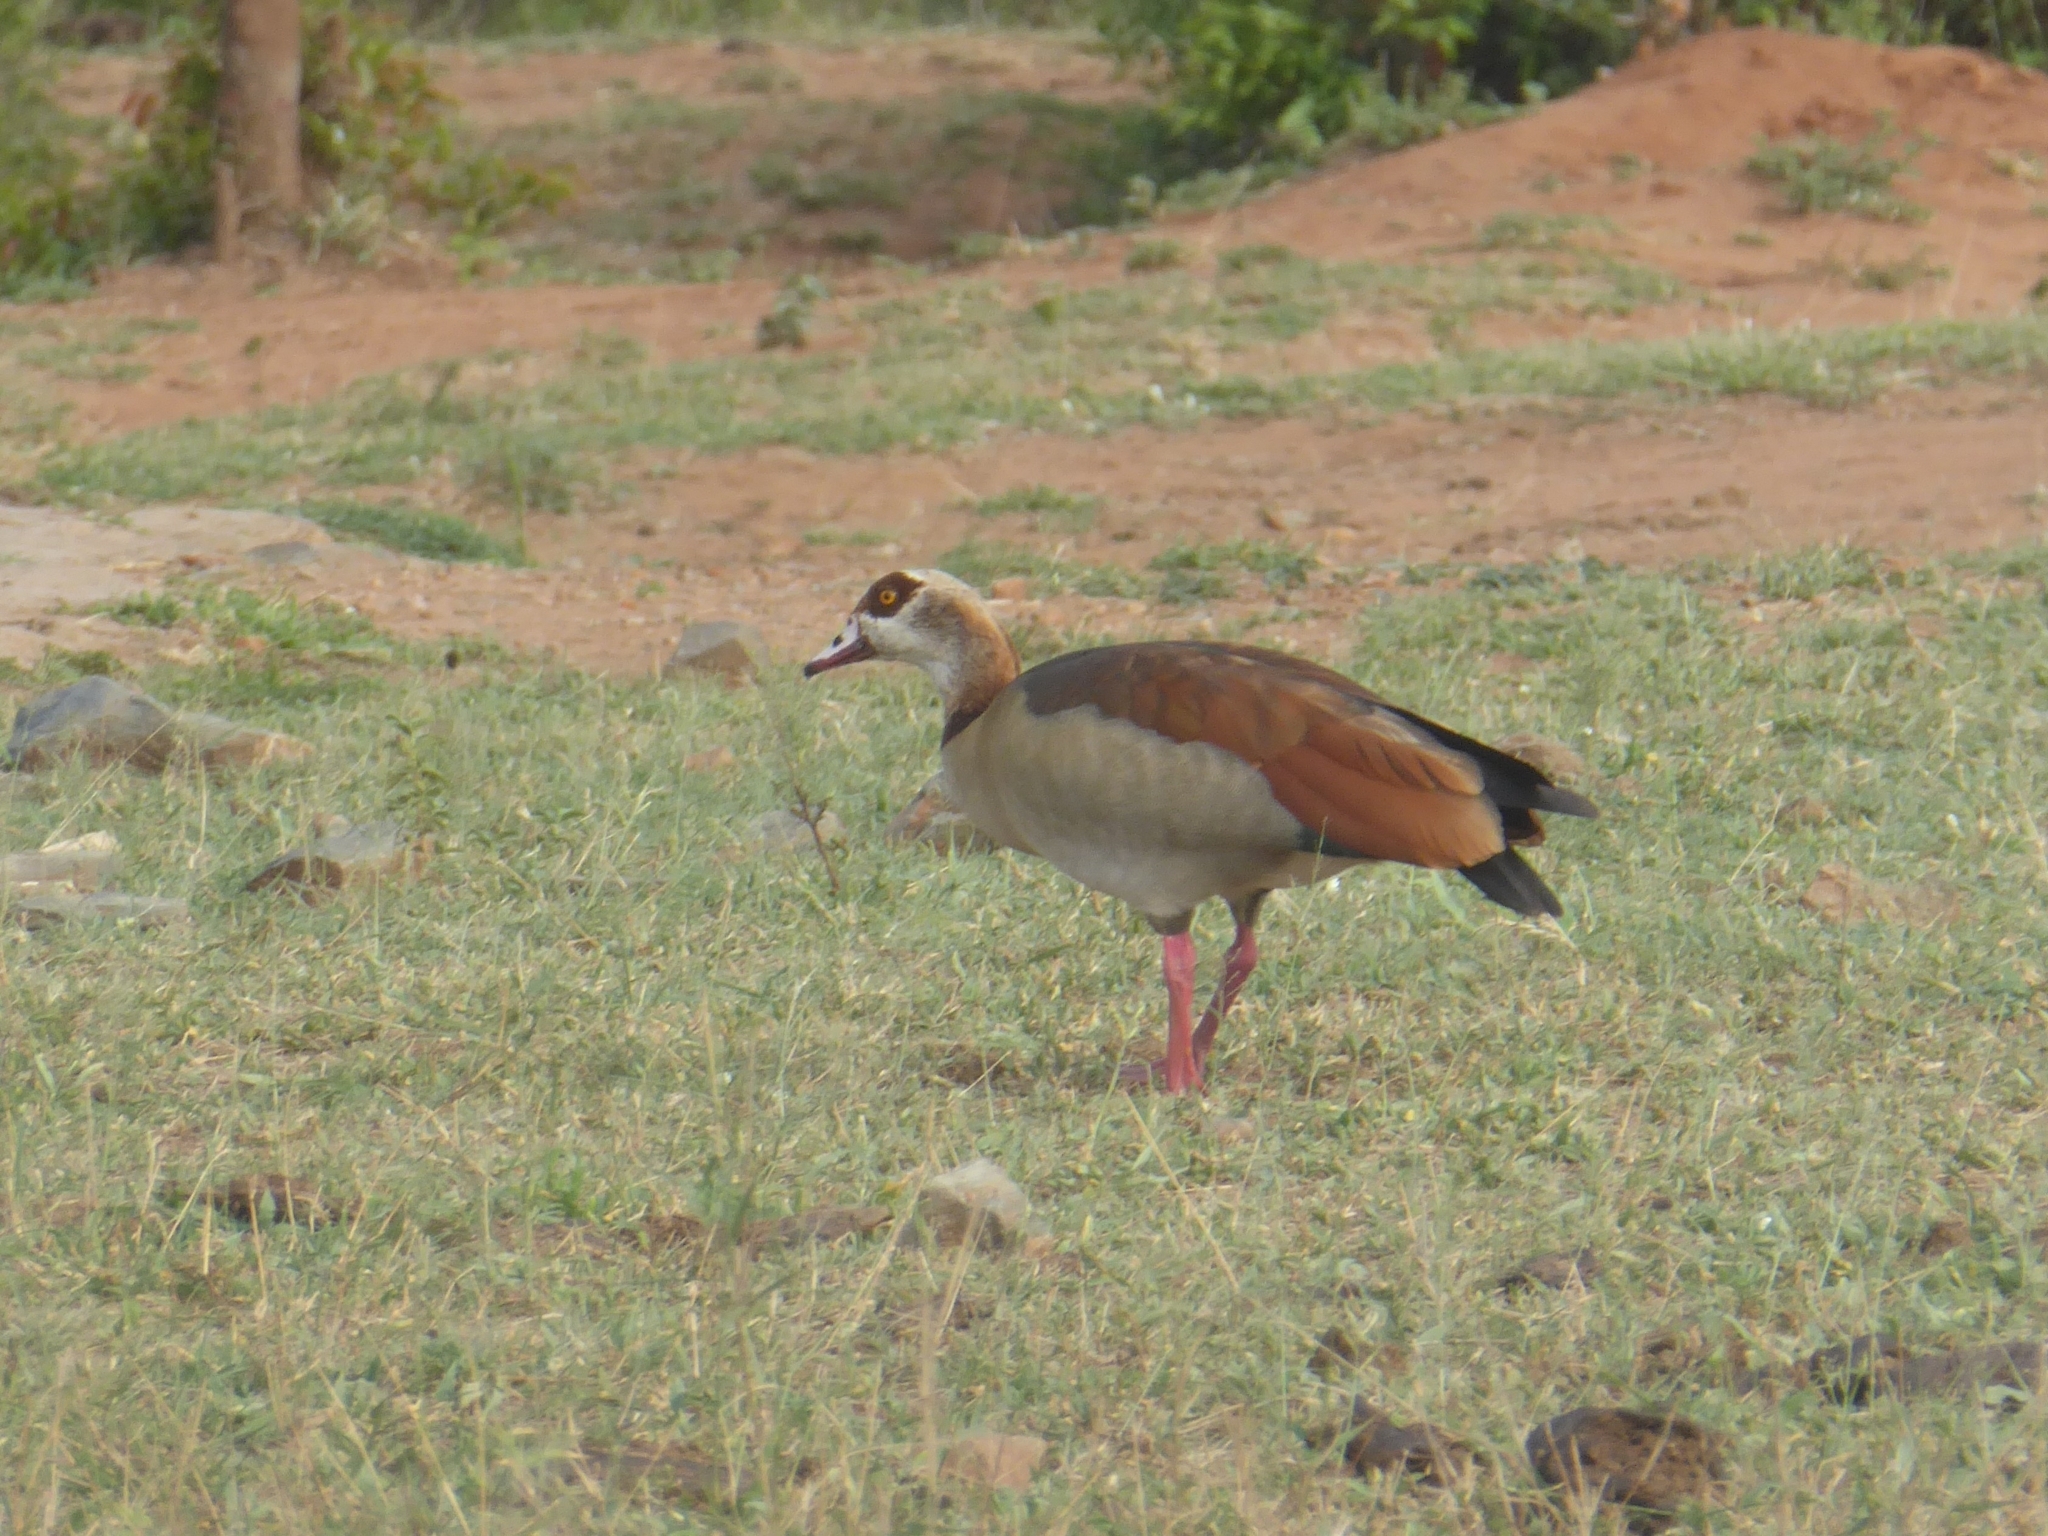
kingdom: Animalia
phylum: Chordata
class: Aves
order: Anseriformes
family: Anatidae
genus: Alopochen
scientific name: Alopochen aegyptiaca
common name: Egyptian goose
